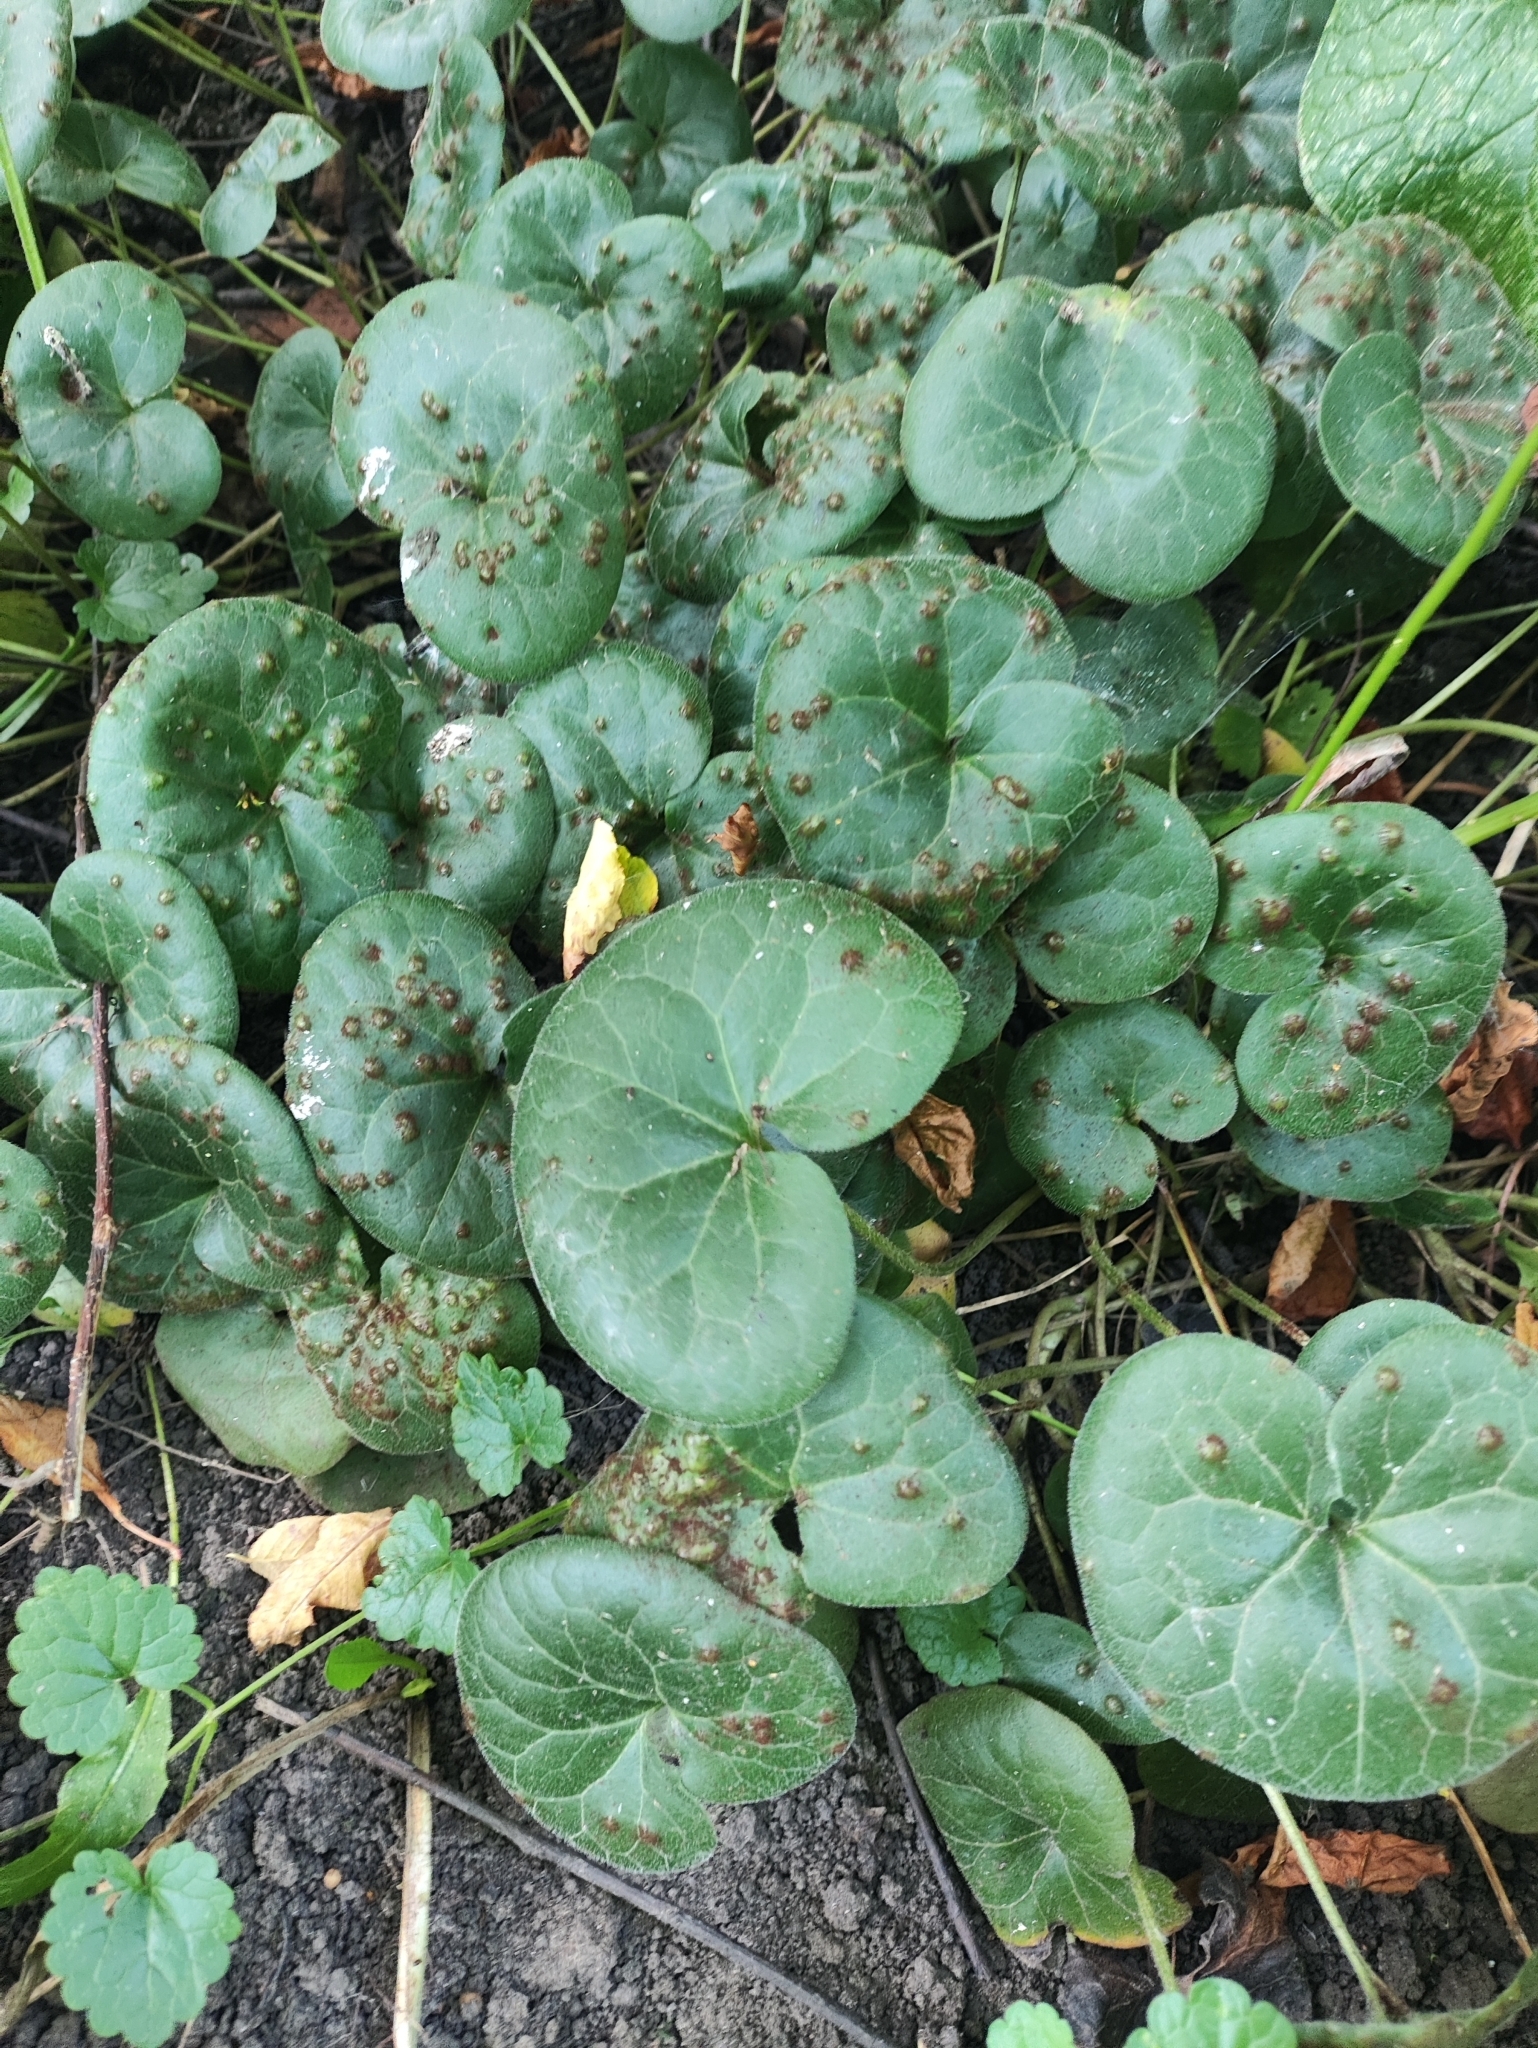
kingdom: Plantae
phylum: Tracheophyta
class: Magnoliopsida
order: Piperales
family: Aristolochiaceae
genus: Asarum
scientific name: Asarum europaeum
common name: Asarabacca
